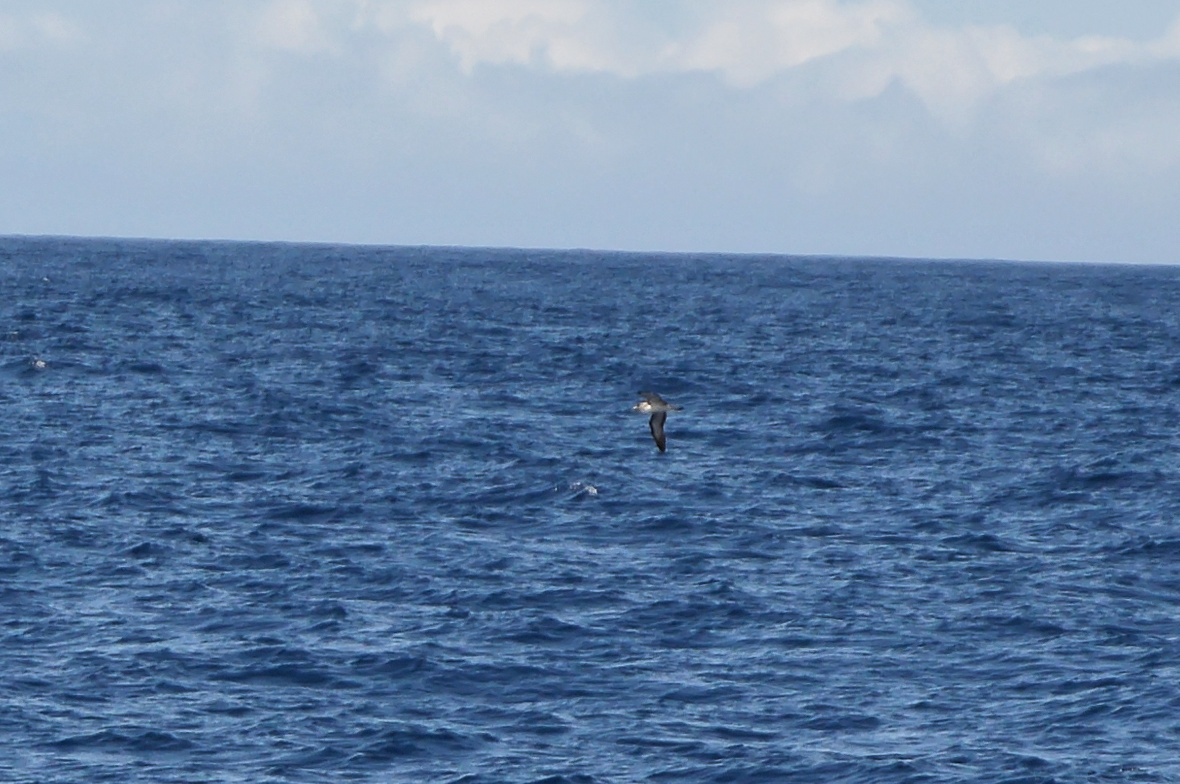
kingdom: Animalia
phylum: Chordata
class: Aves
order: Procellariiformes
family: Procellariidae
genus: Calonectris
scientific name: Calonectris diomedea
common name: Cory's shearwater
